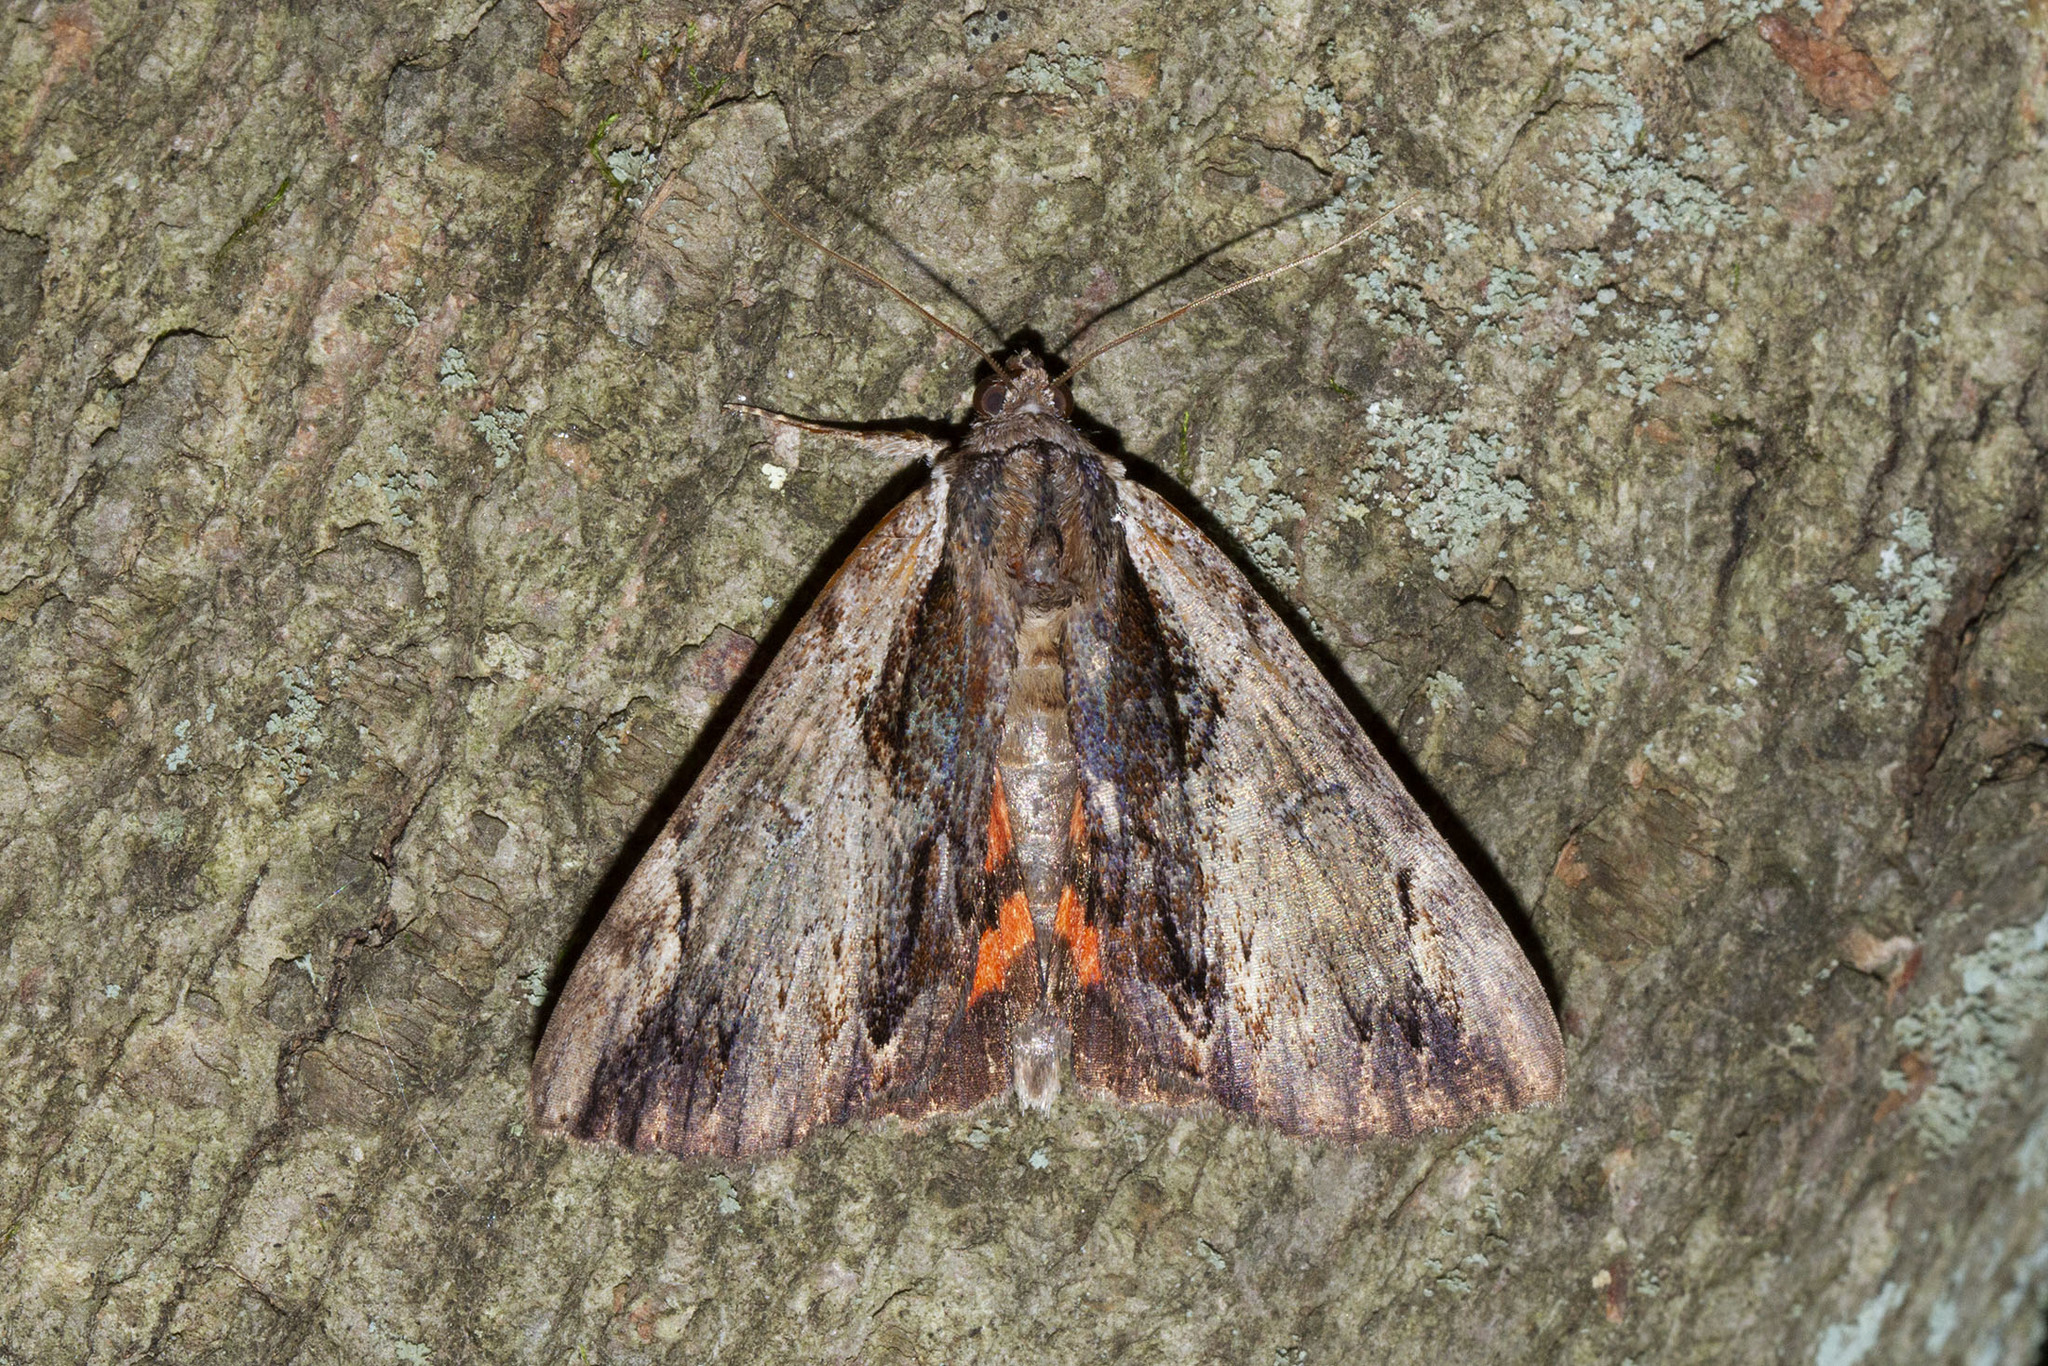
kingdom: Animalia
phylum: Arthropoda
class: Insecta
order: Lepidoptera
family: Erebidae
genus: Catocala
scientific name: Catocala ultronia
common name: Ultronia underwing
